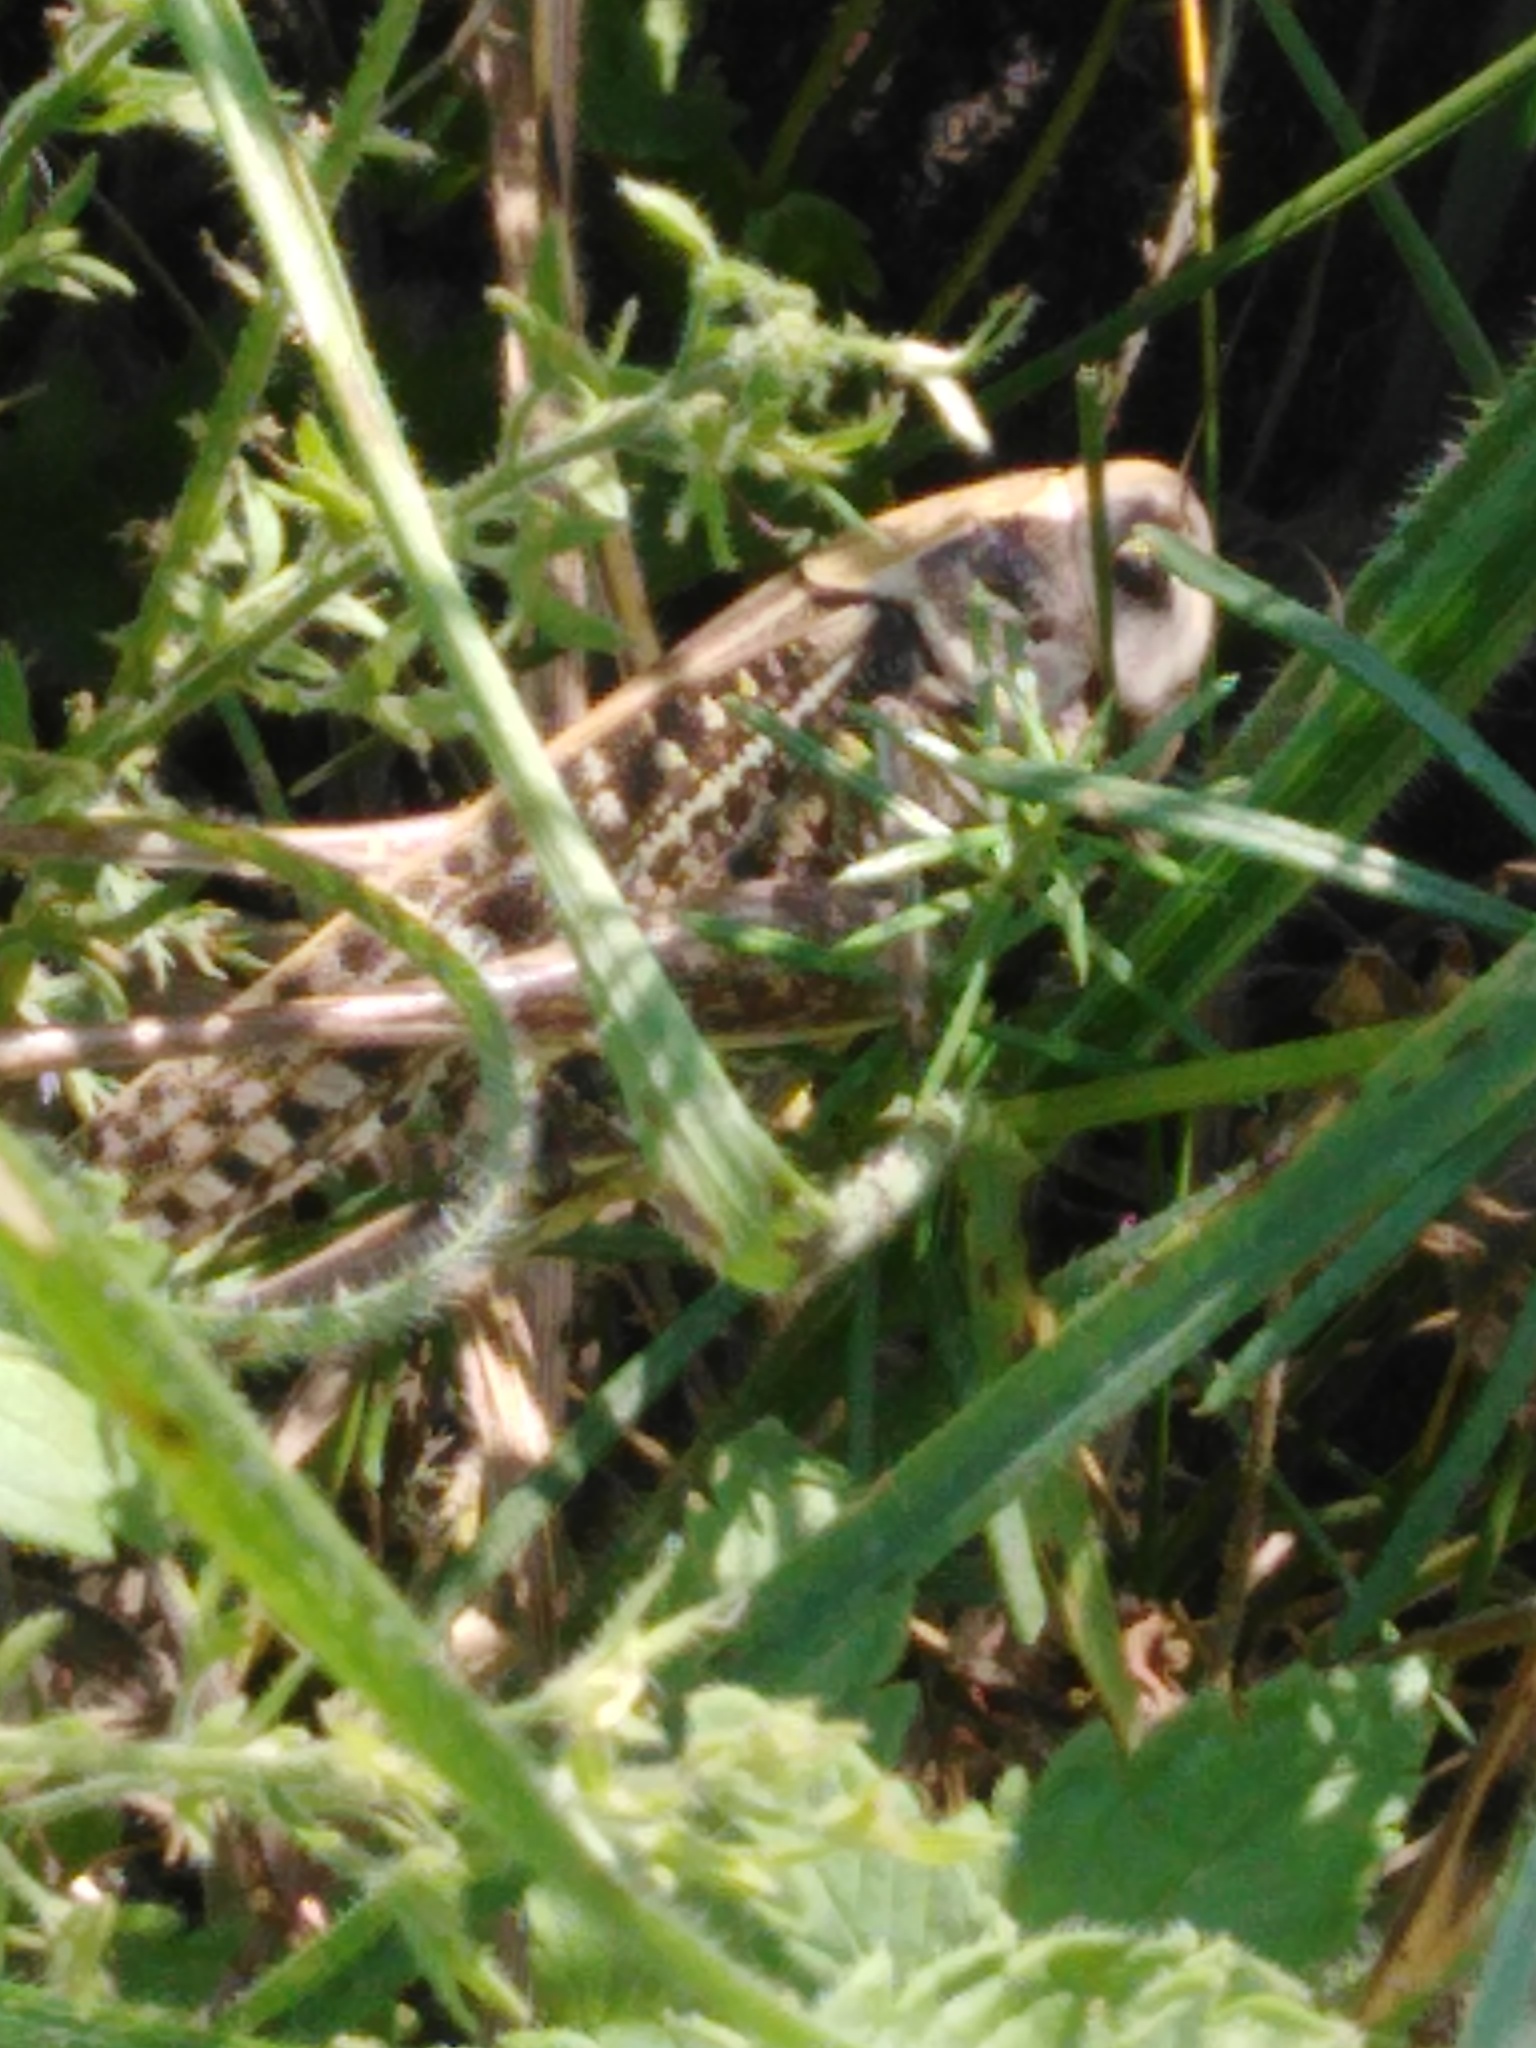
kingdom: Animalia
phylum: Arthropoda
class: Insecta
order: Orthoptera
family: Tettigoniidae
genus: Decticus
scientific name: Decticus verrucivorus
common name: Wart-biter
